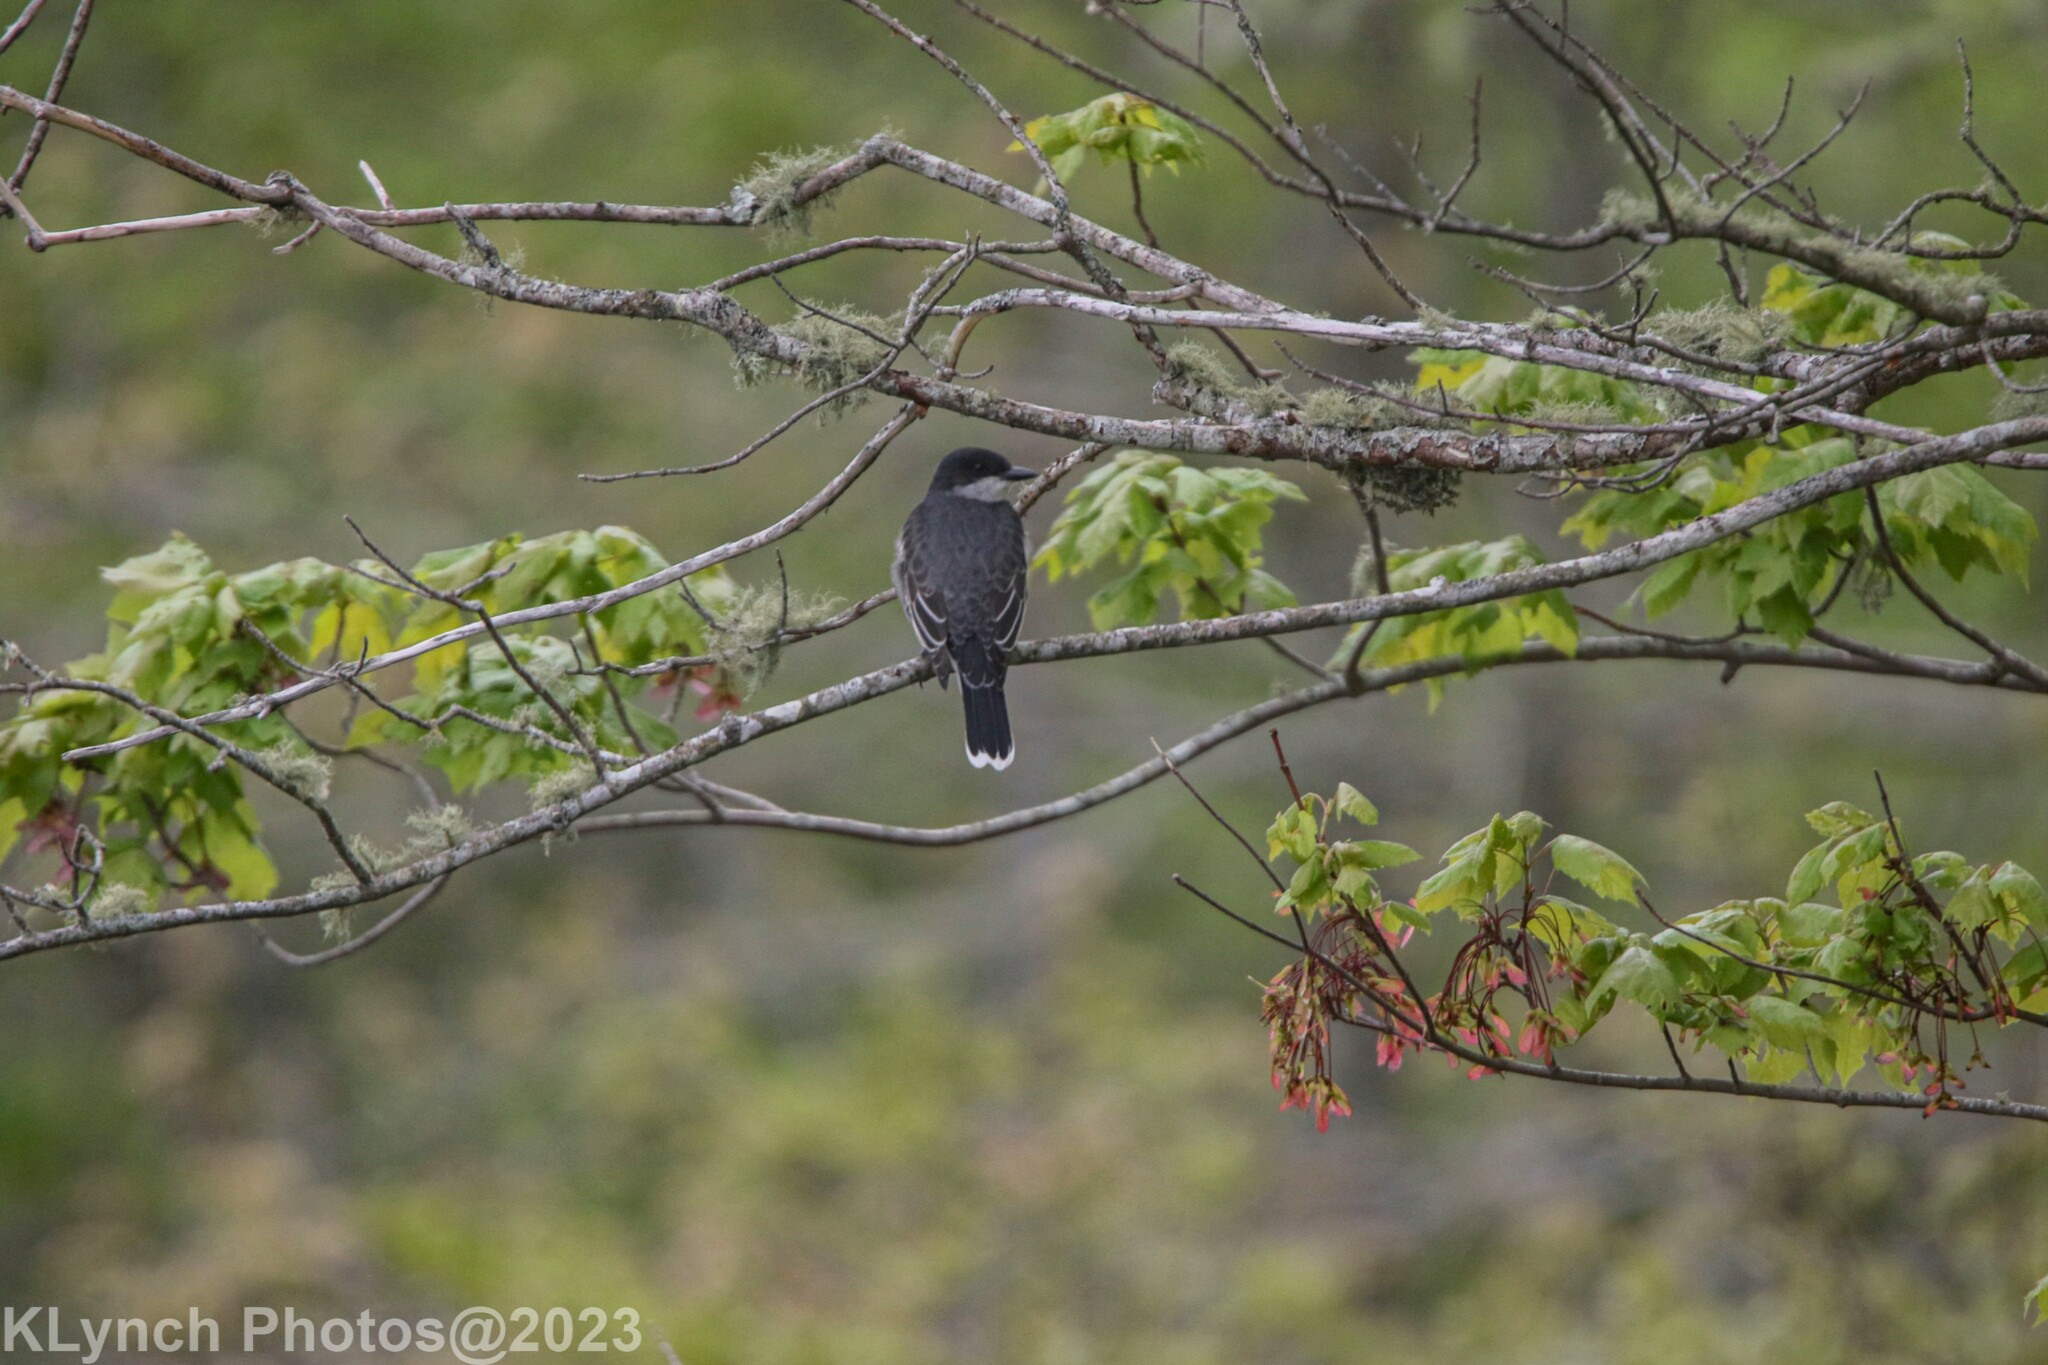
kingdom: Animalia
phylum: Chordata
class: Aves
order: Passeriformes
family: Tyrannidae
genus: Tyrannus
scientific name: Tyrannus tyrannus
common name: Eastern kingbird
